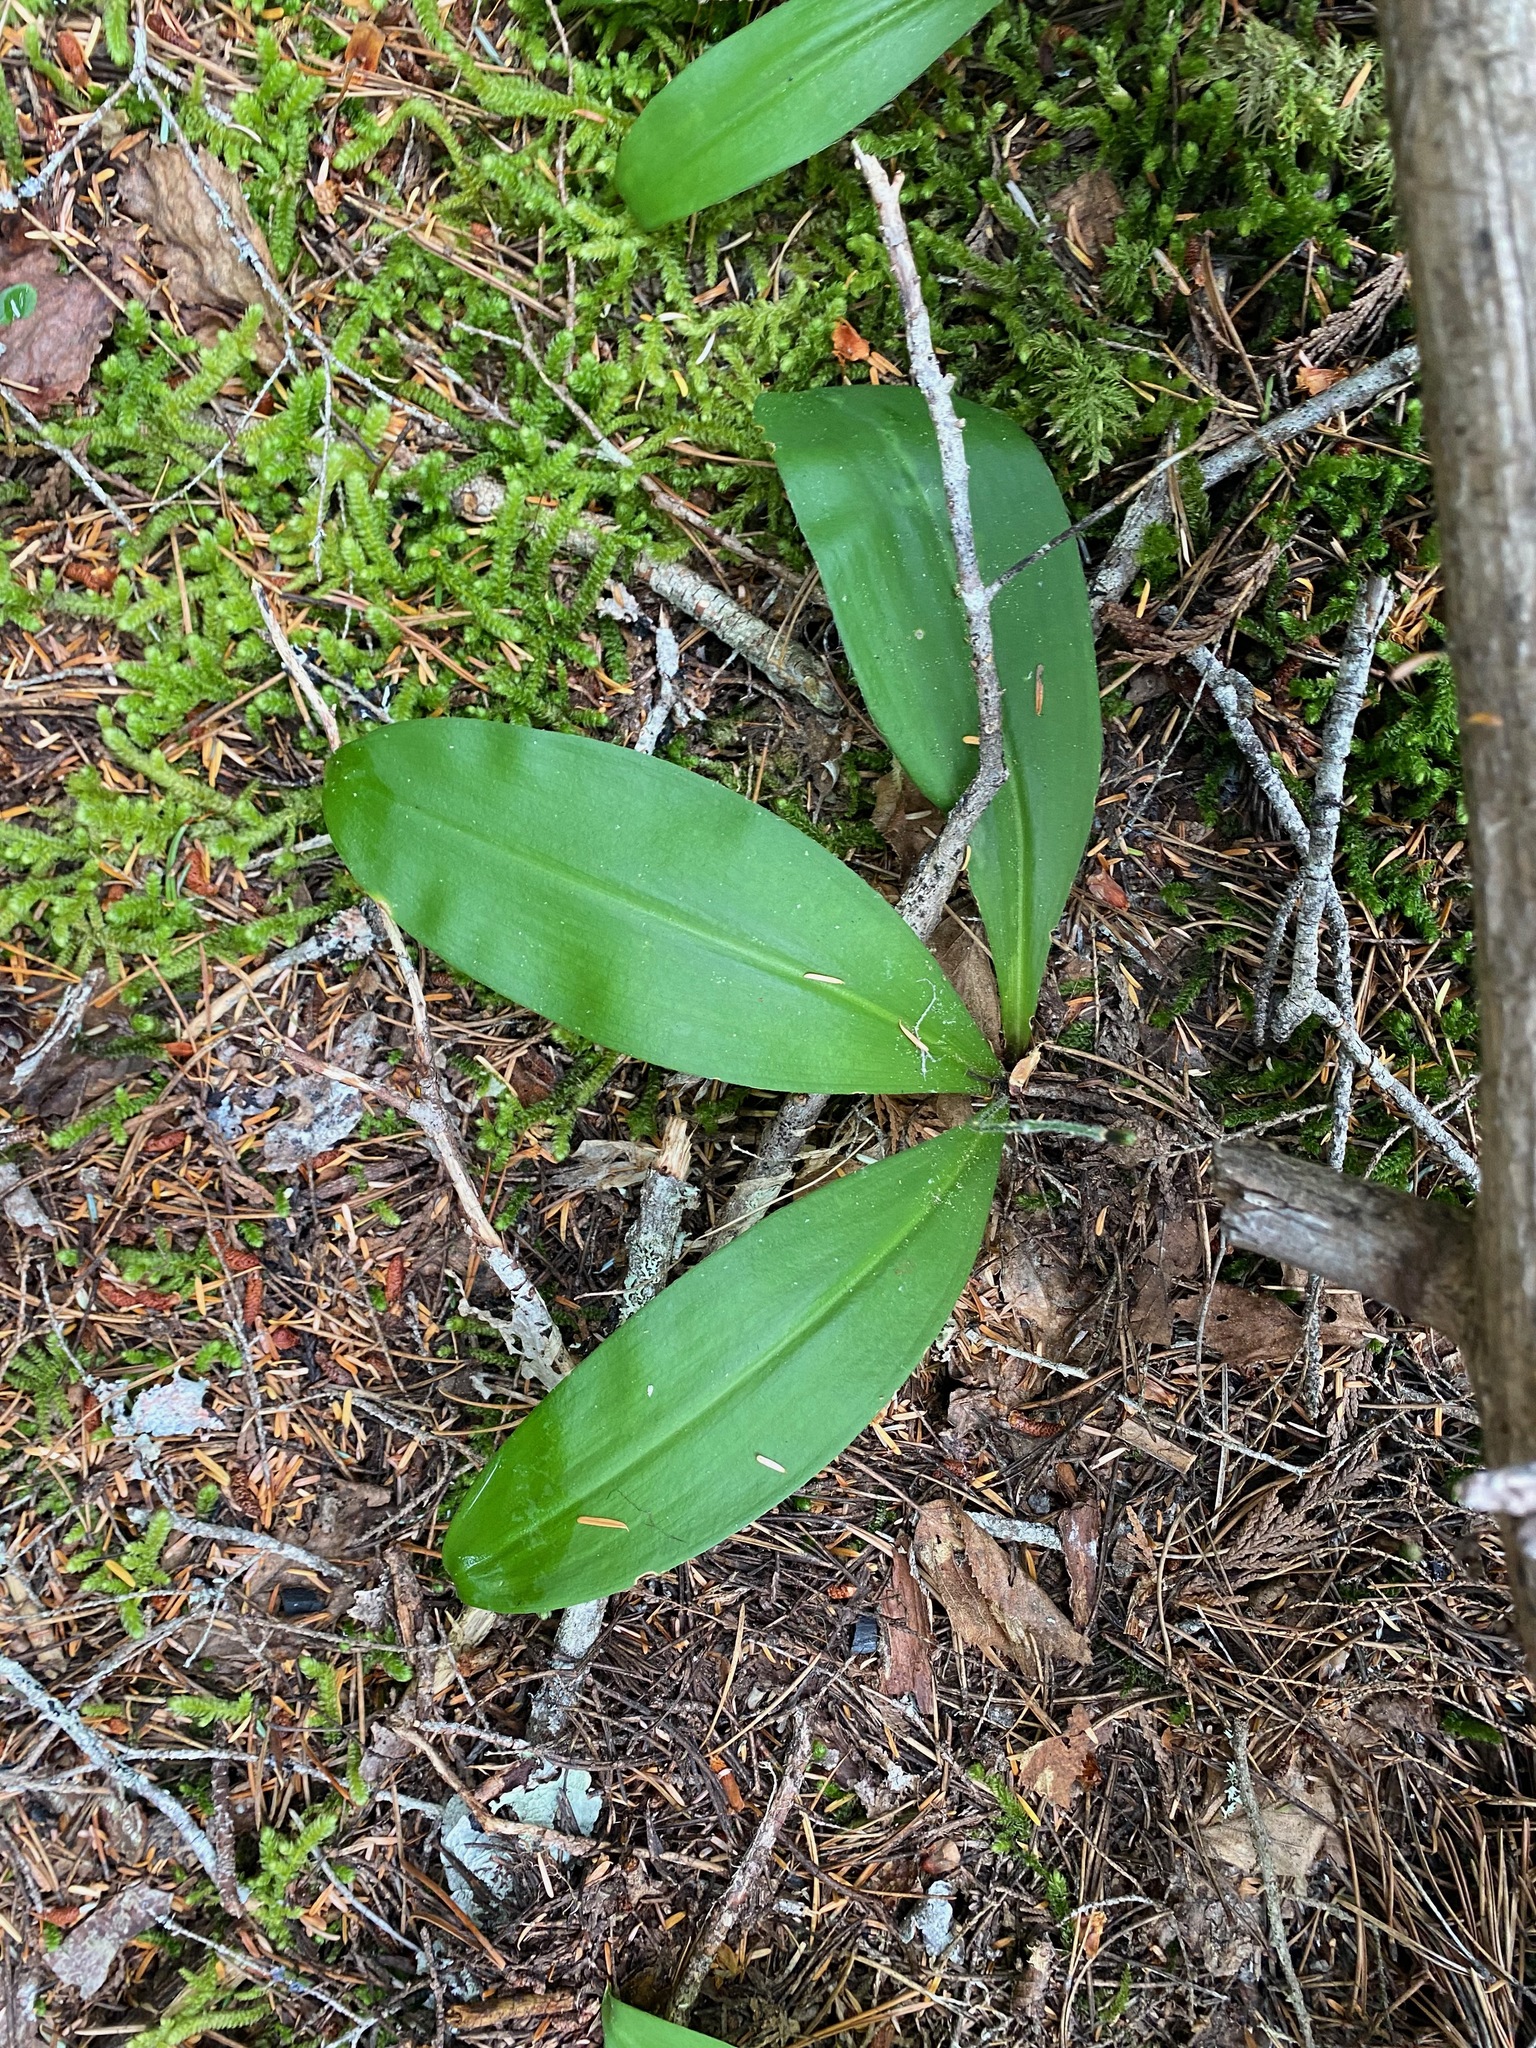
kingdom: Plantae
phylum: Tracheophyta
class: Liliopsida
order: Liliales
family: Liliaceae
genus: Clintonia
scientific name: Clintonia uniflora
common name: Queen's cup
